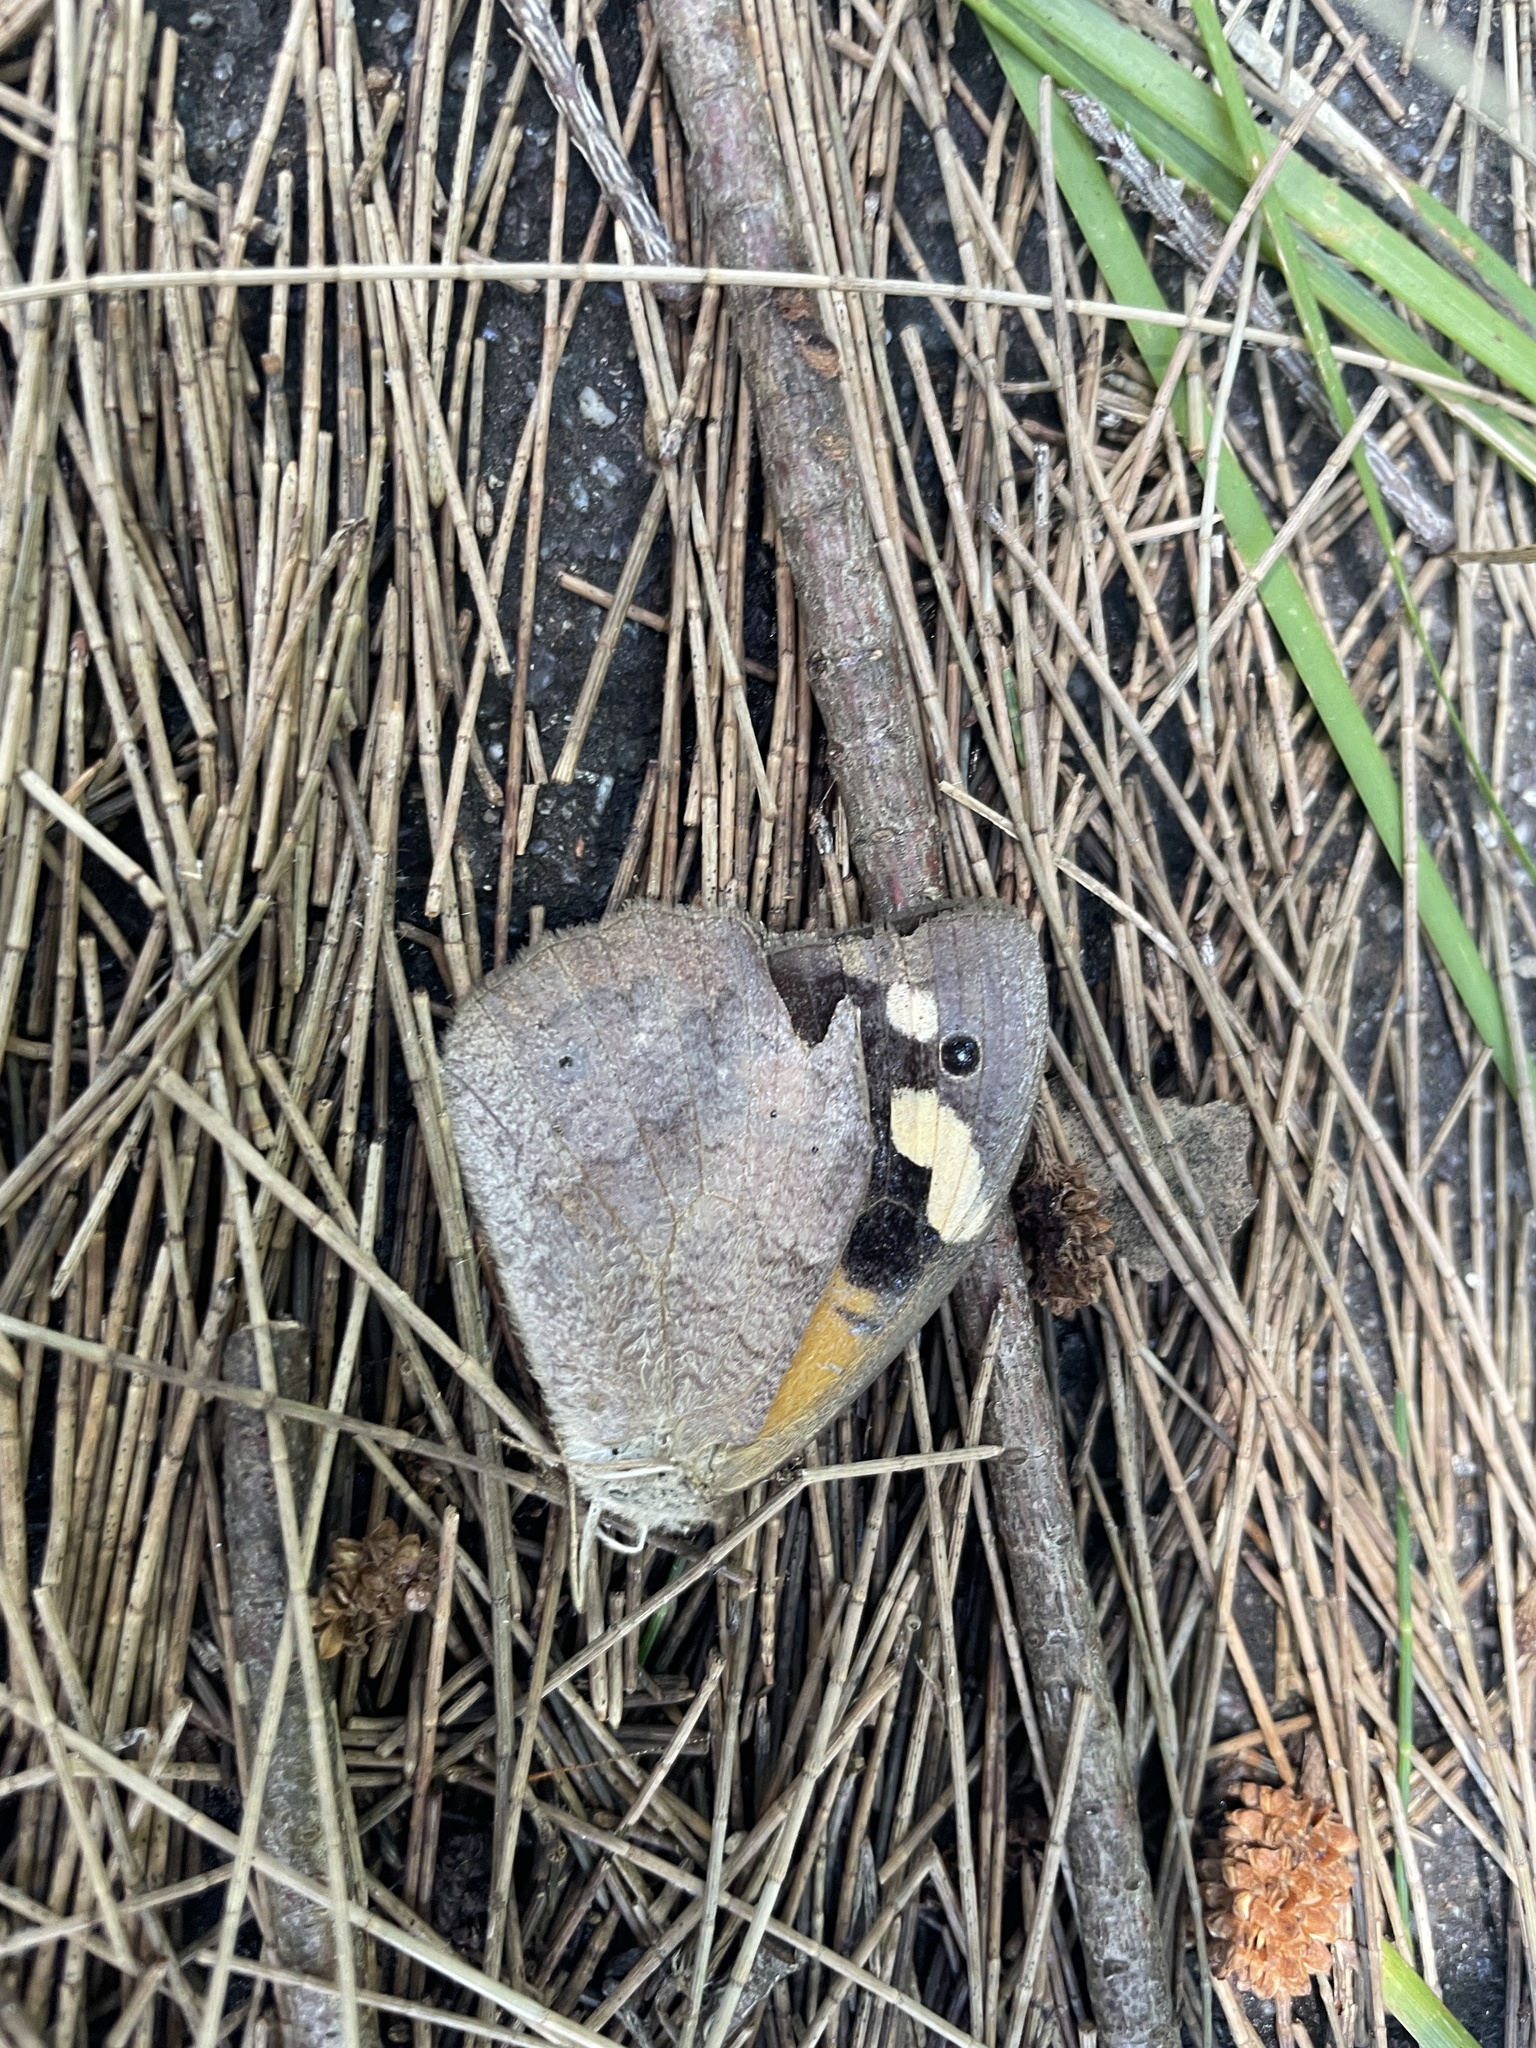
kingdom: Animalia
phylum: Arthropoda
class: Insecta
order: Lepidoptera
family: Nymphalidae
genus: Heteronympha
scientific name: Heteronympha merope
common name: Common brown
